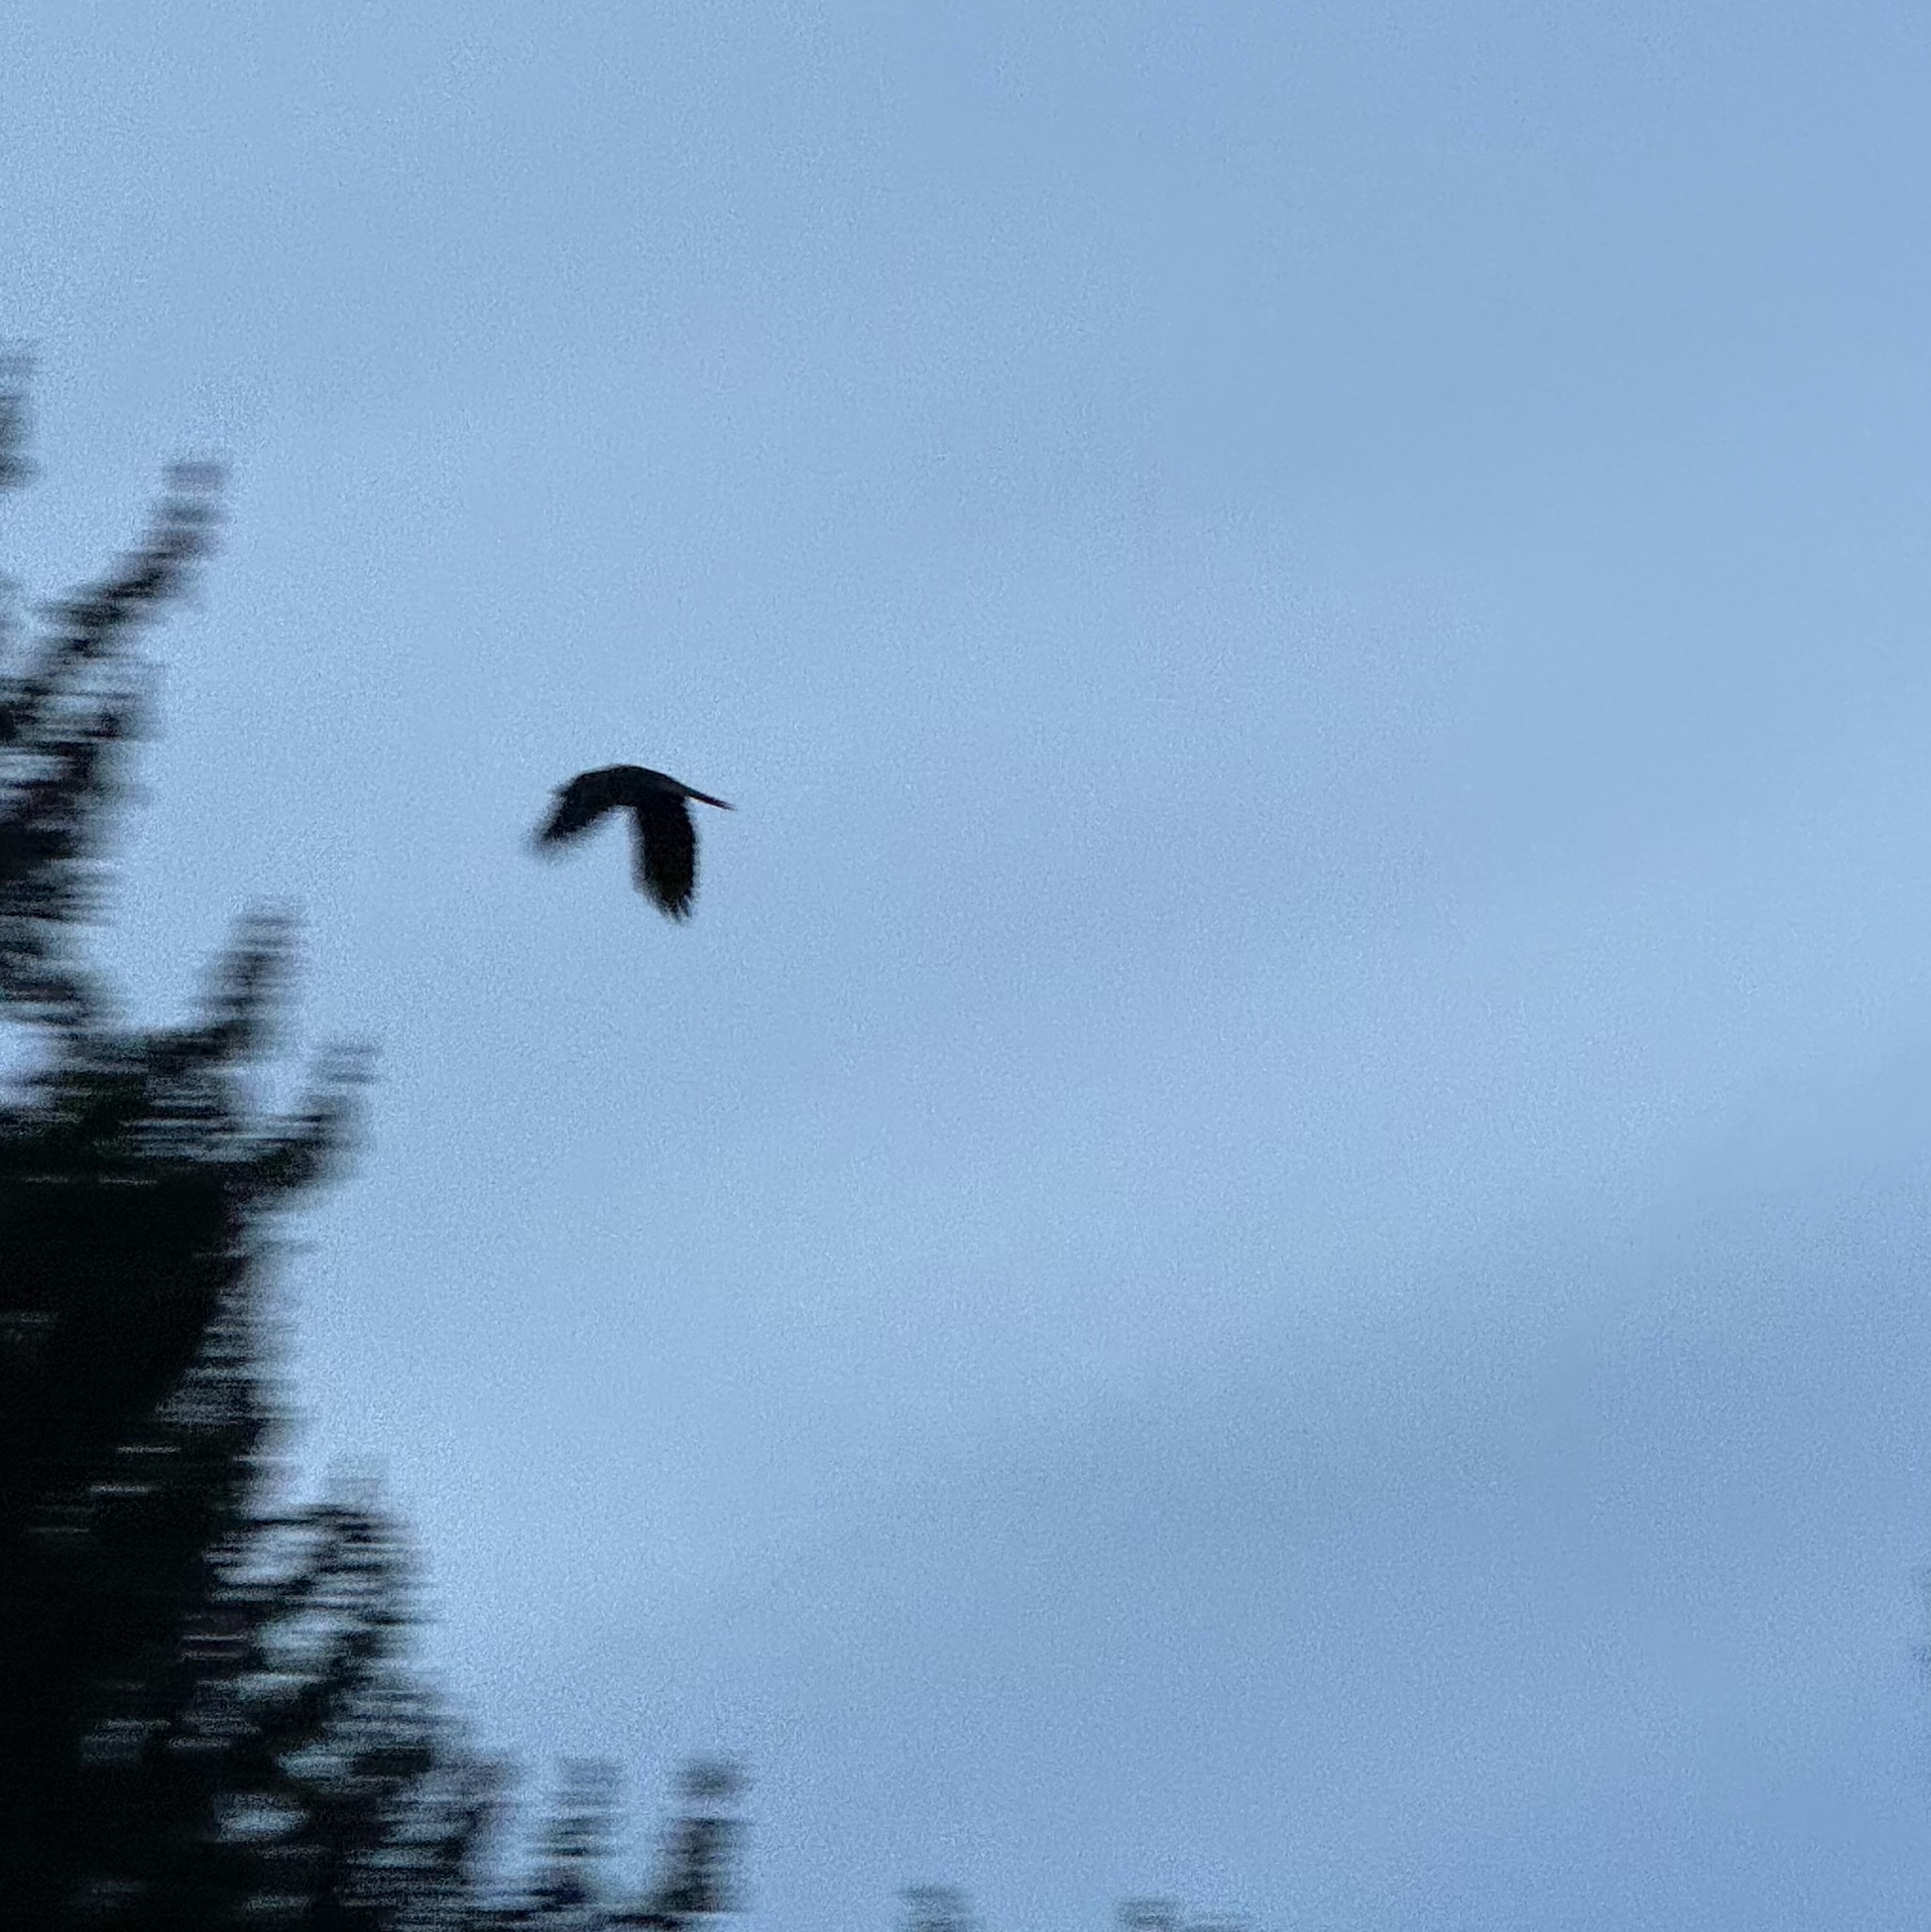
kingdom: Animalia
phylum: Chordata
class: Aves
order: Passeriformes
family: Corvidae
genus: Corvus
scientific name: Corvus corax
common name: Common raven
